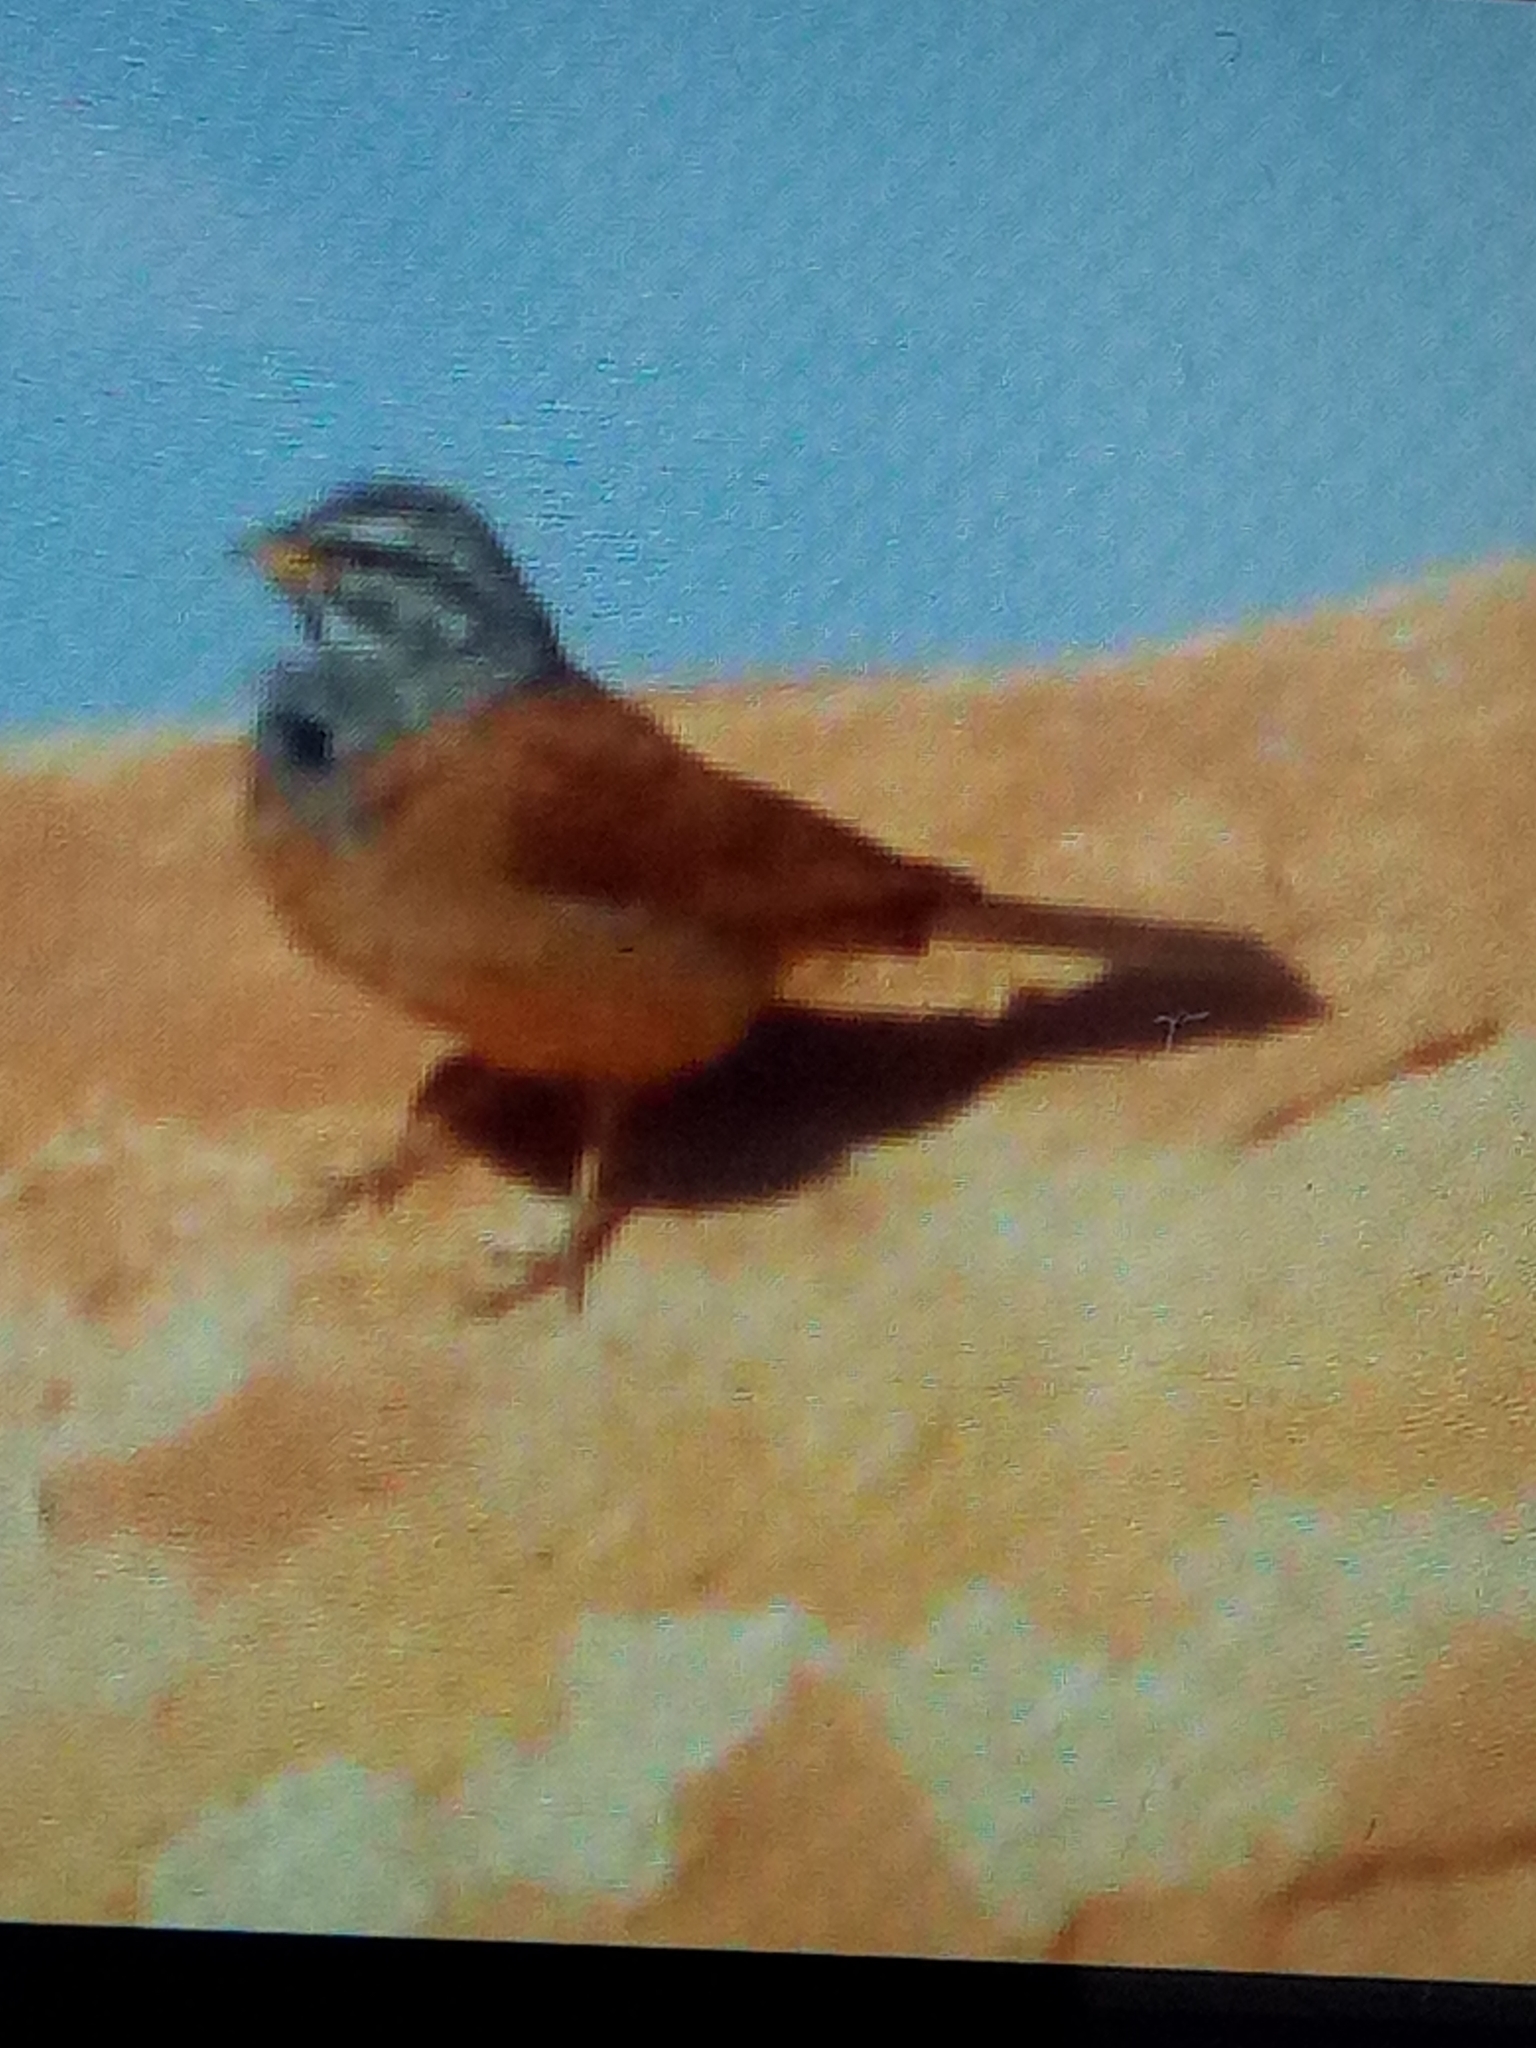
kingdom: Animalia
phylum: Chordata
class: Aves
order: Passeriformes
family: Emberizidae
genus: Emberiza
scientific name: Emberiza sahari
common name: House bunting
